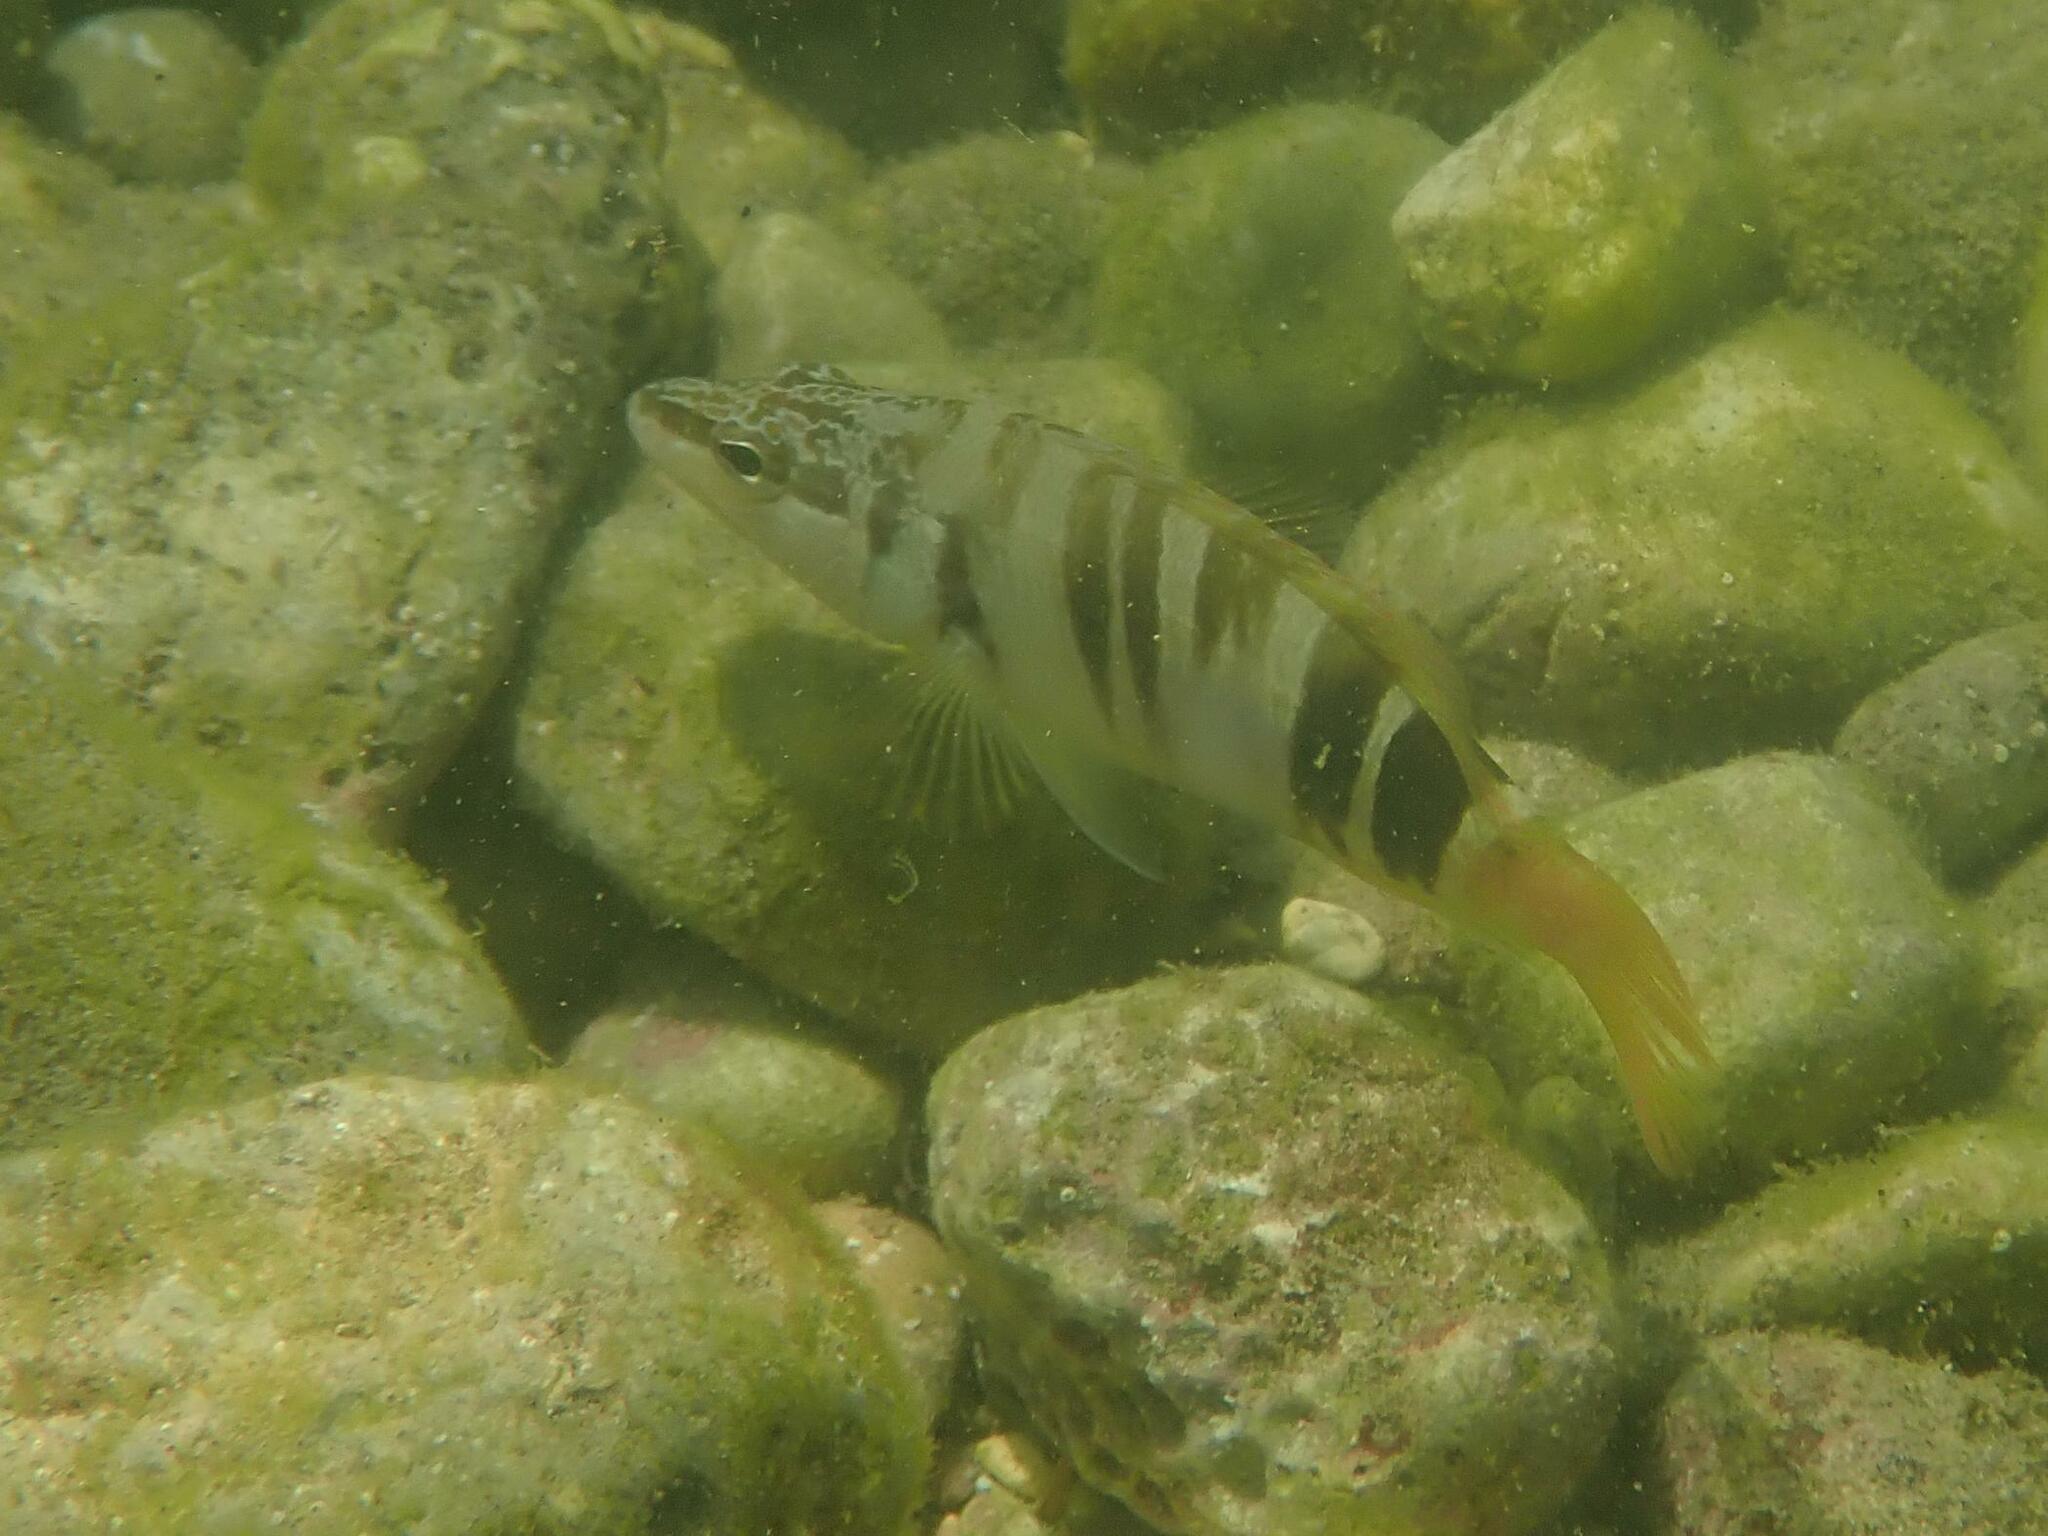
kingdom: Animalia
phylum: Chordata
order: Perciformes
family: Serranidae
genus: Serranus
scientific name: Serranus scriba
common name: Painted comber
